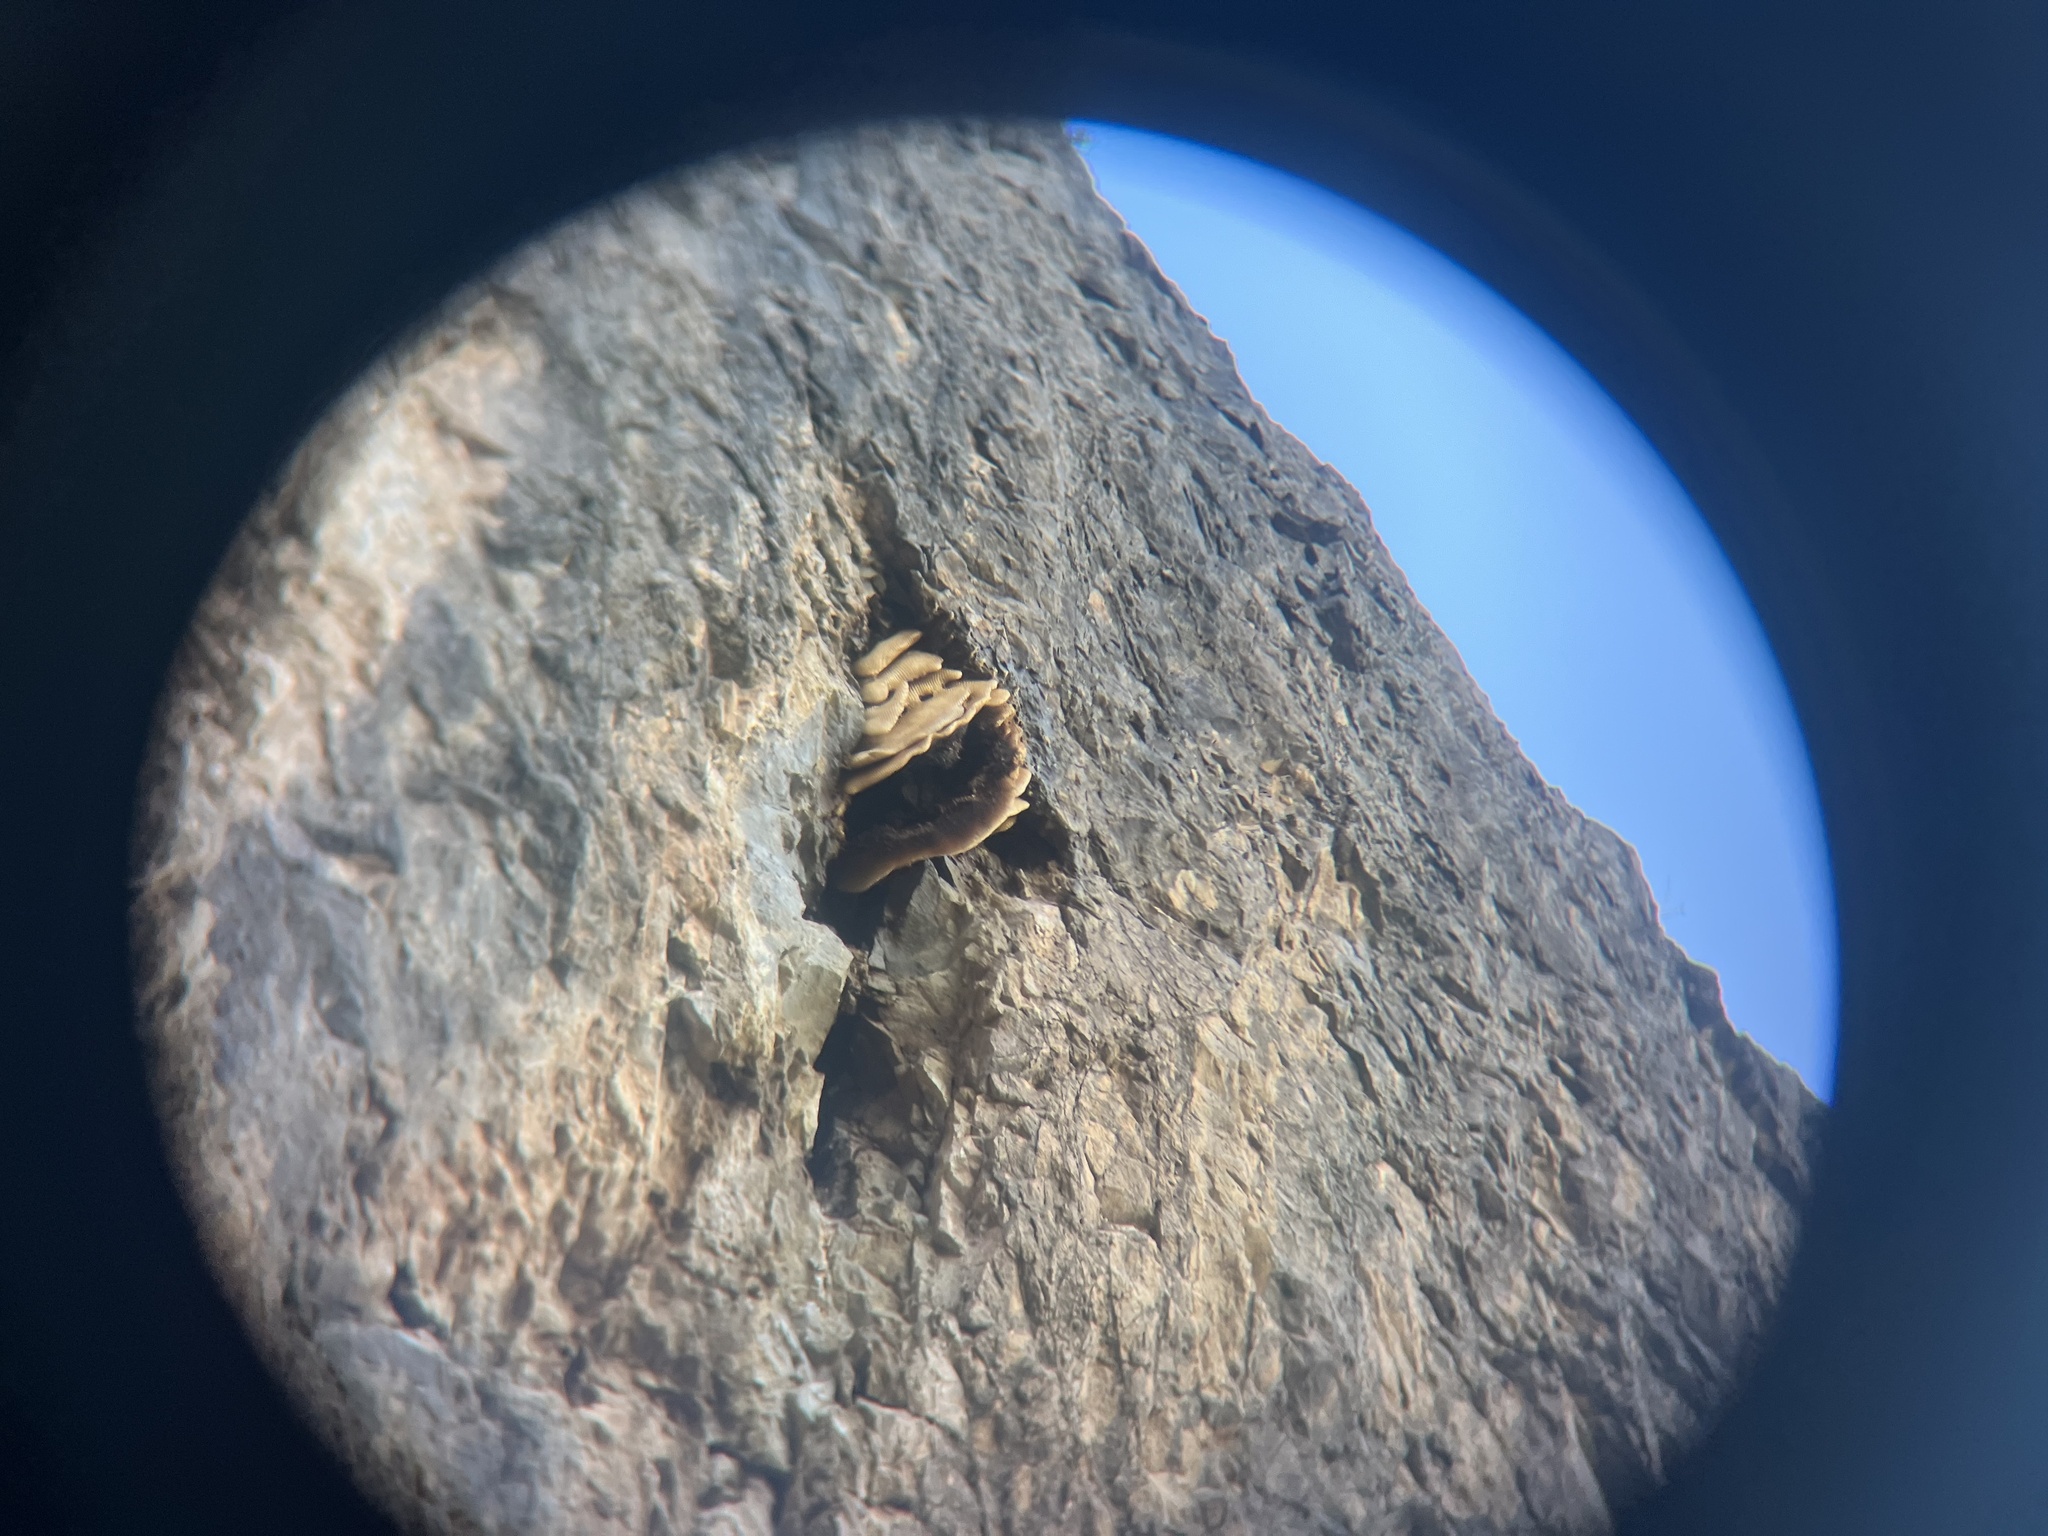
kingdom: Animalia
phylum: Arthropoda
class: Insecta
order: Hymenoptera
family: Apidae
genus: Apis
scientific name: Apis mellifera
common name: Honey bee
